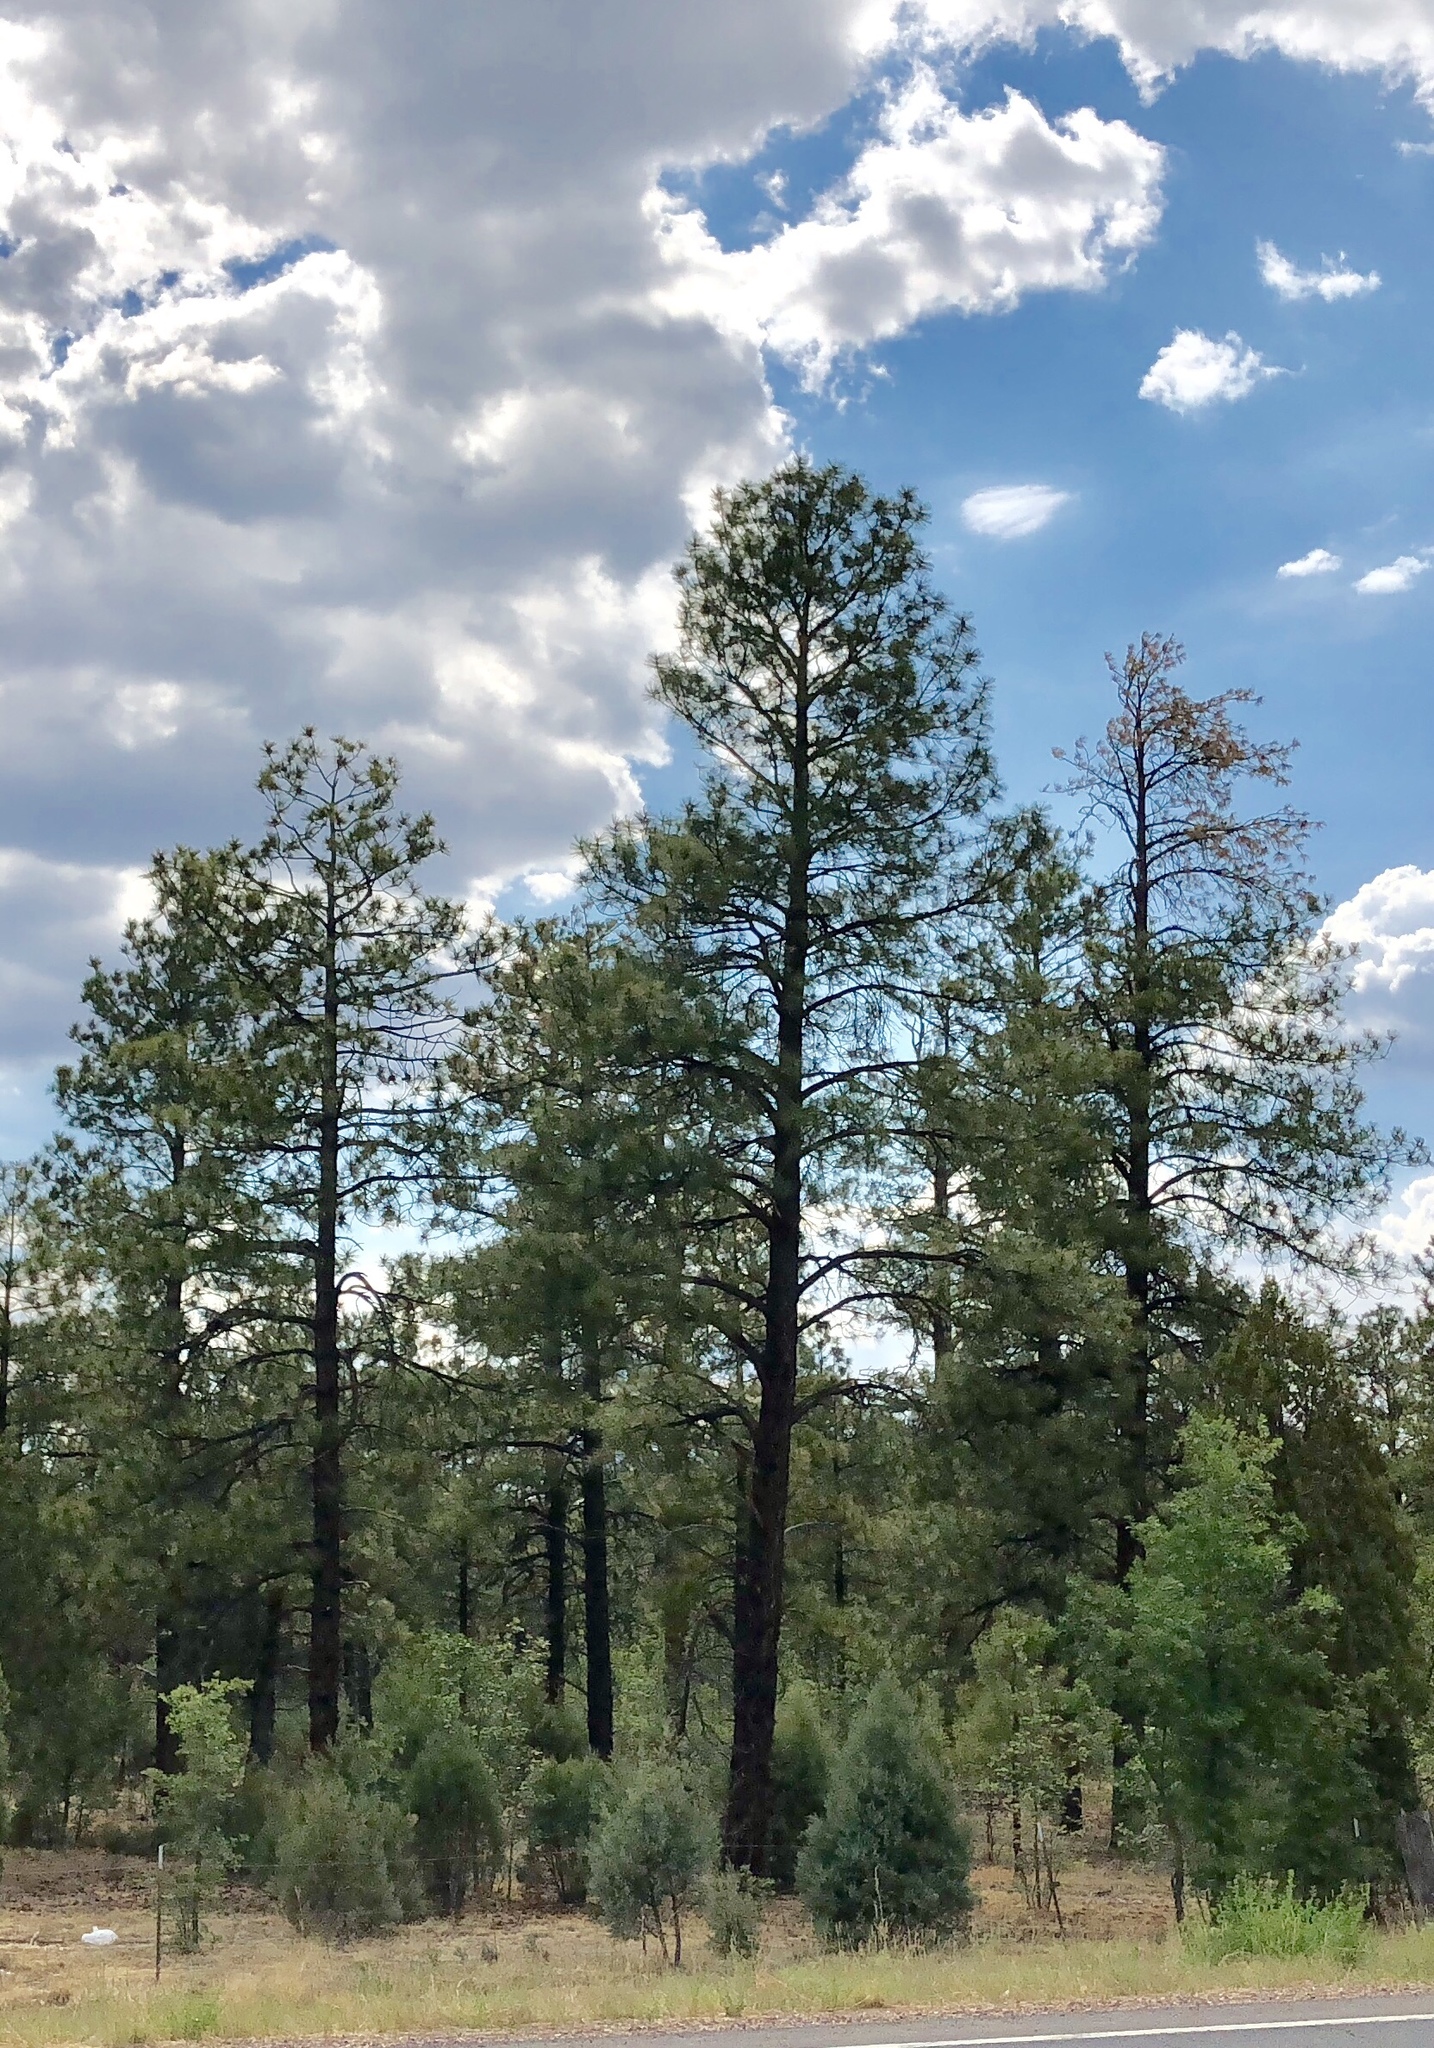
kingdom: Plantae
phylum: Tracheophyta
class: Pinopsida
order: Pinales
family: Pinaceae
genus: Pinus
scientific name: Pinus ponderosa
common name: Western yellow-pine
